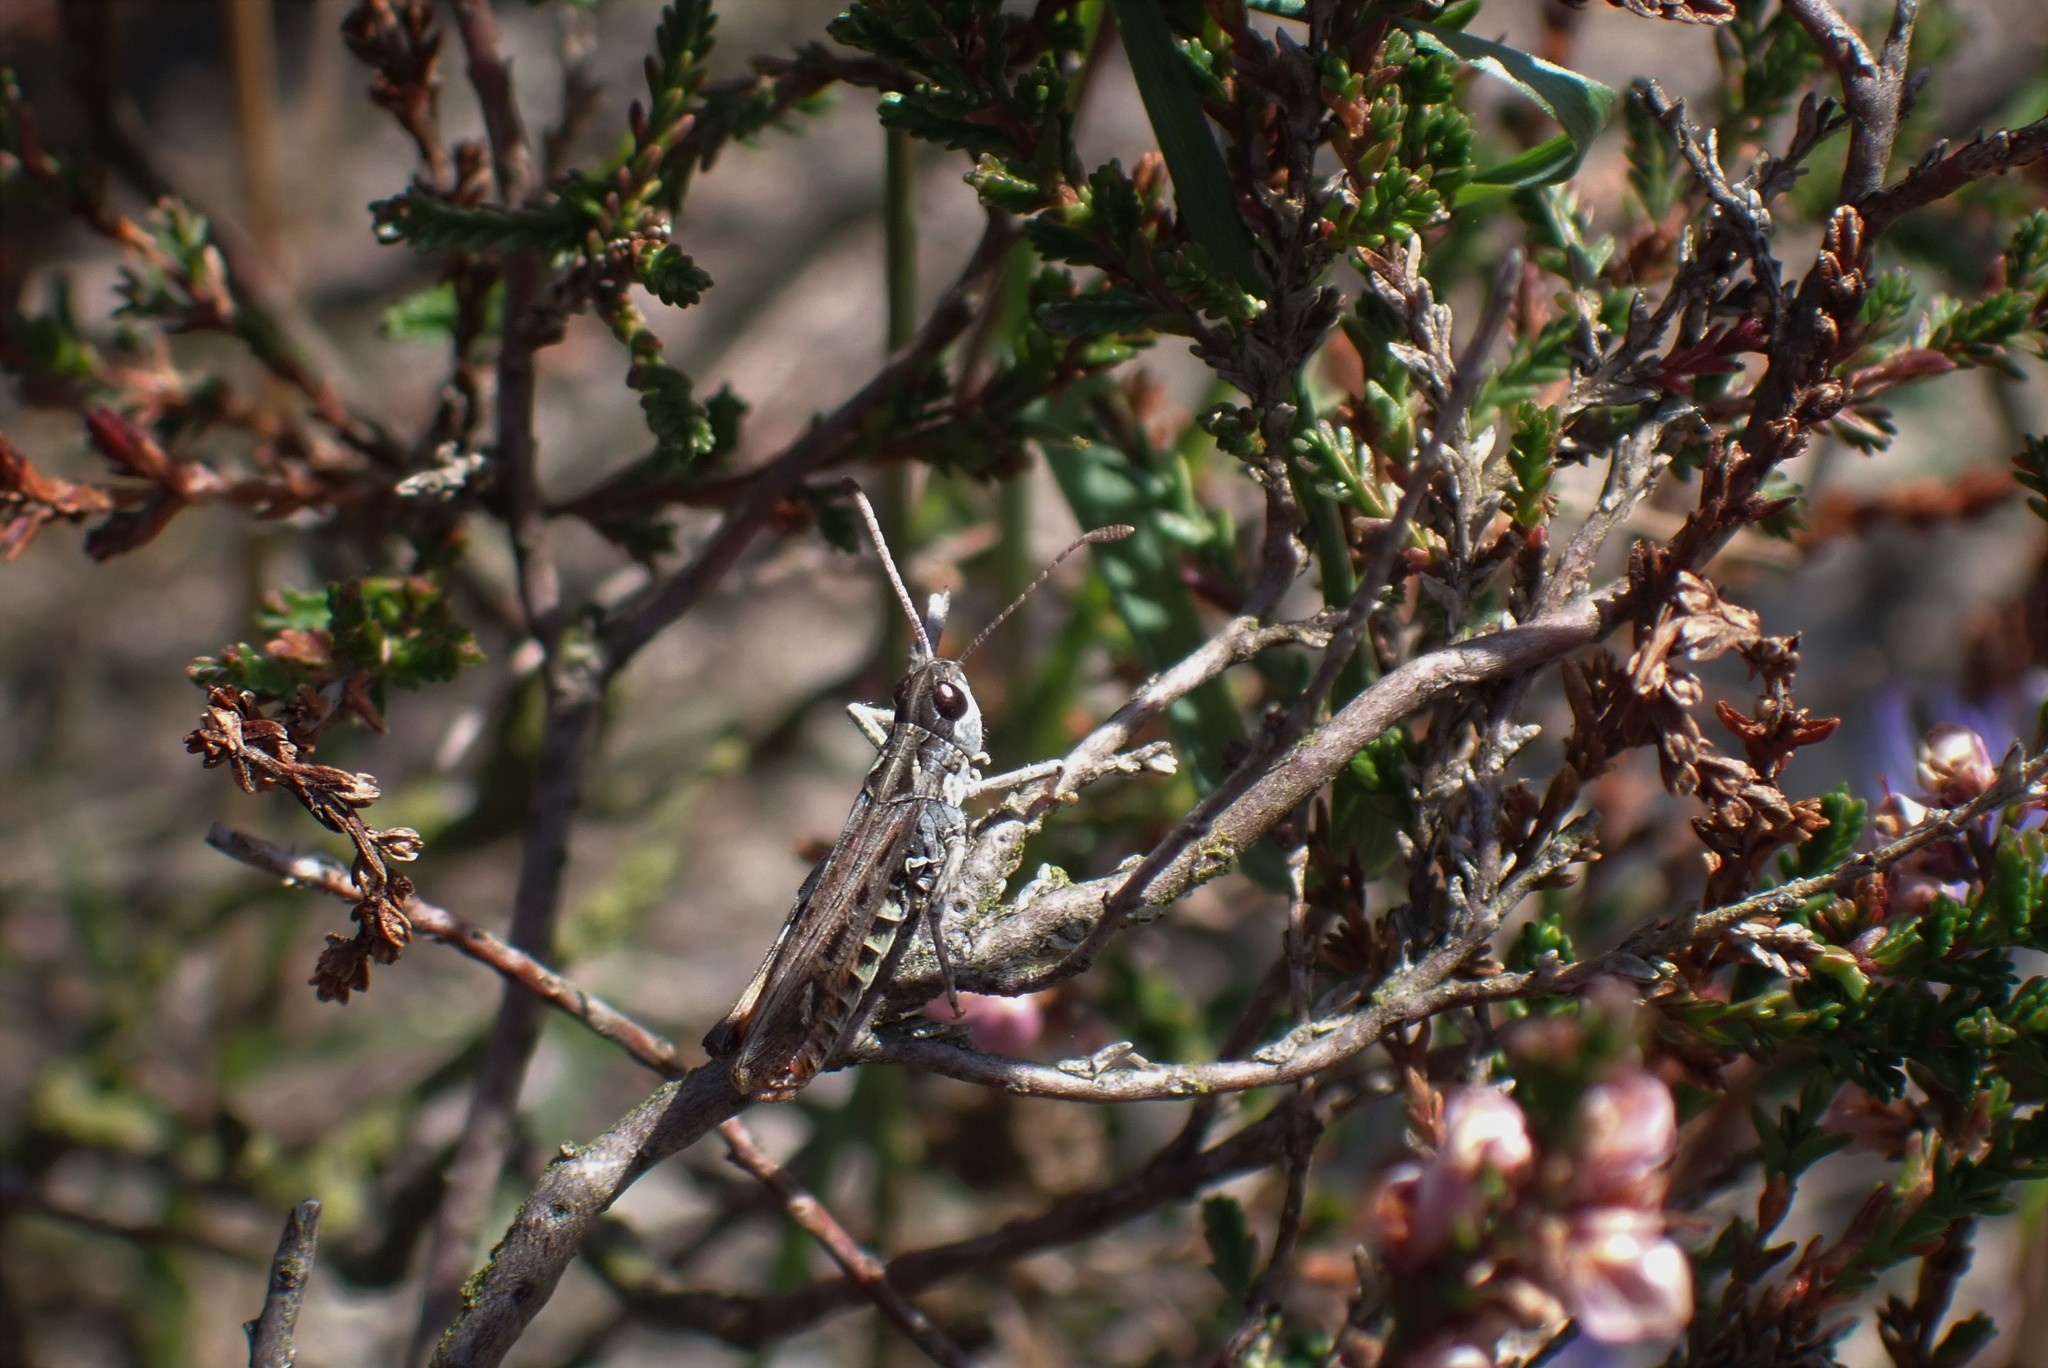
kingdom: Animalia
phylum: Arthropoda
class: Insecta
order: Orthoptera
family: Acrididae
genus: Myrmeleotettix
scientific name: Myrmeleotettix maculatus
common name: Mottled grasshopper
